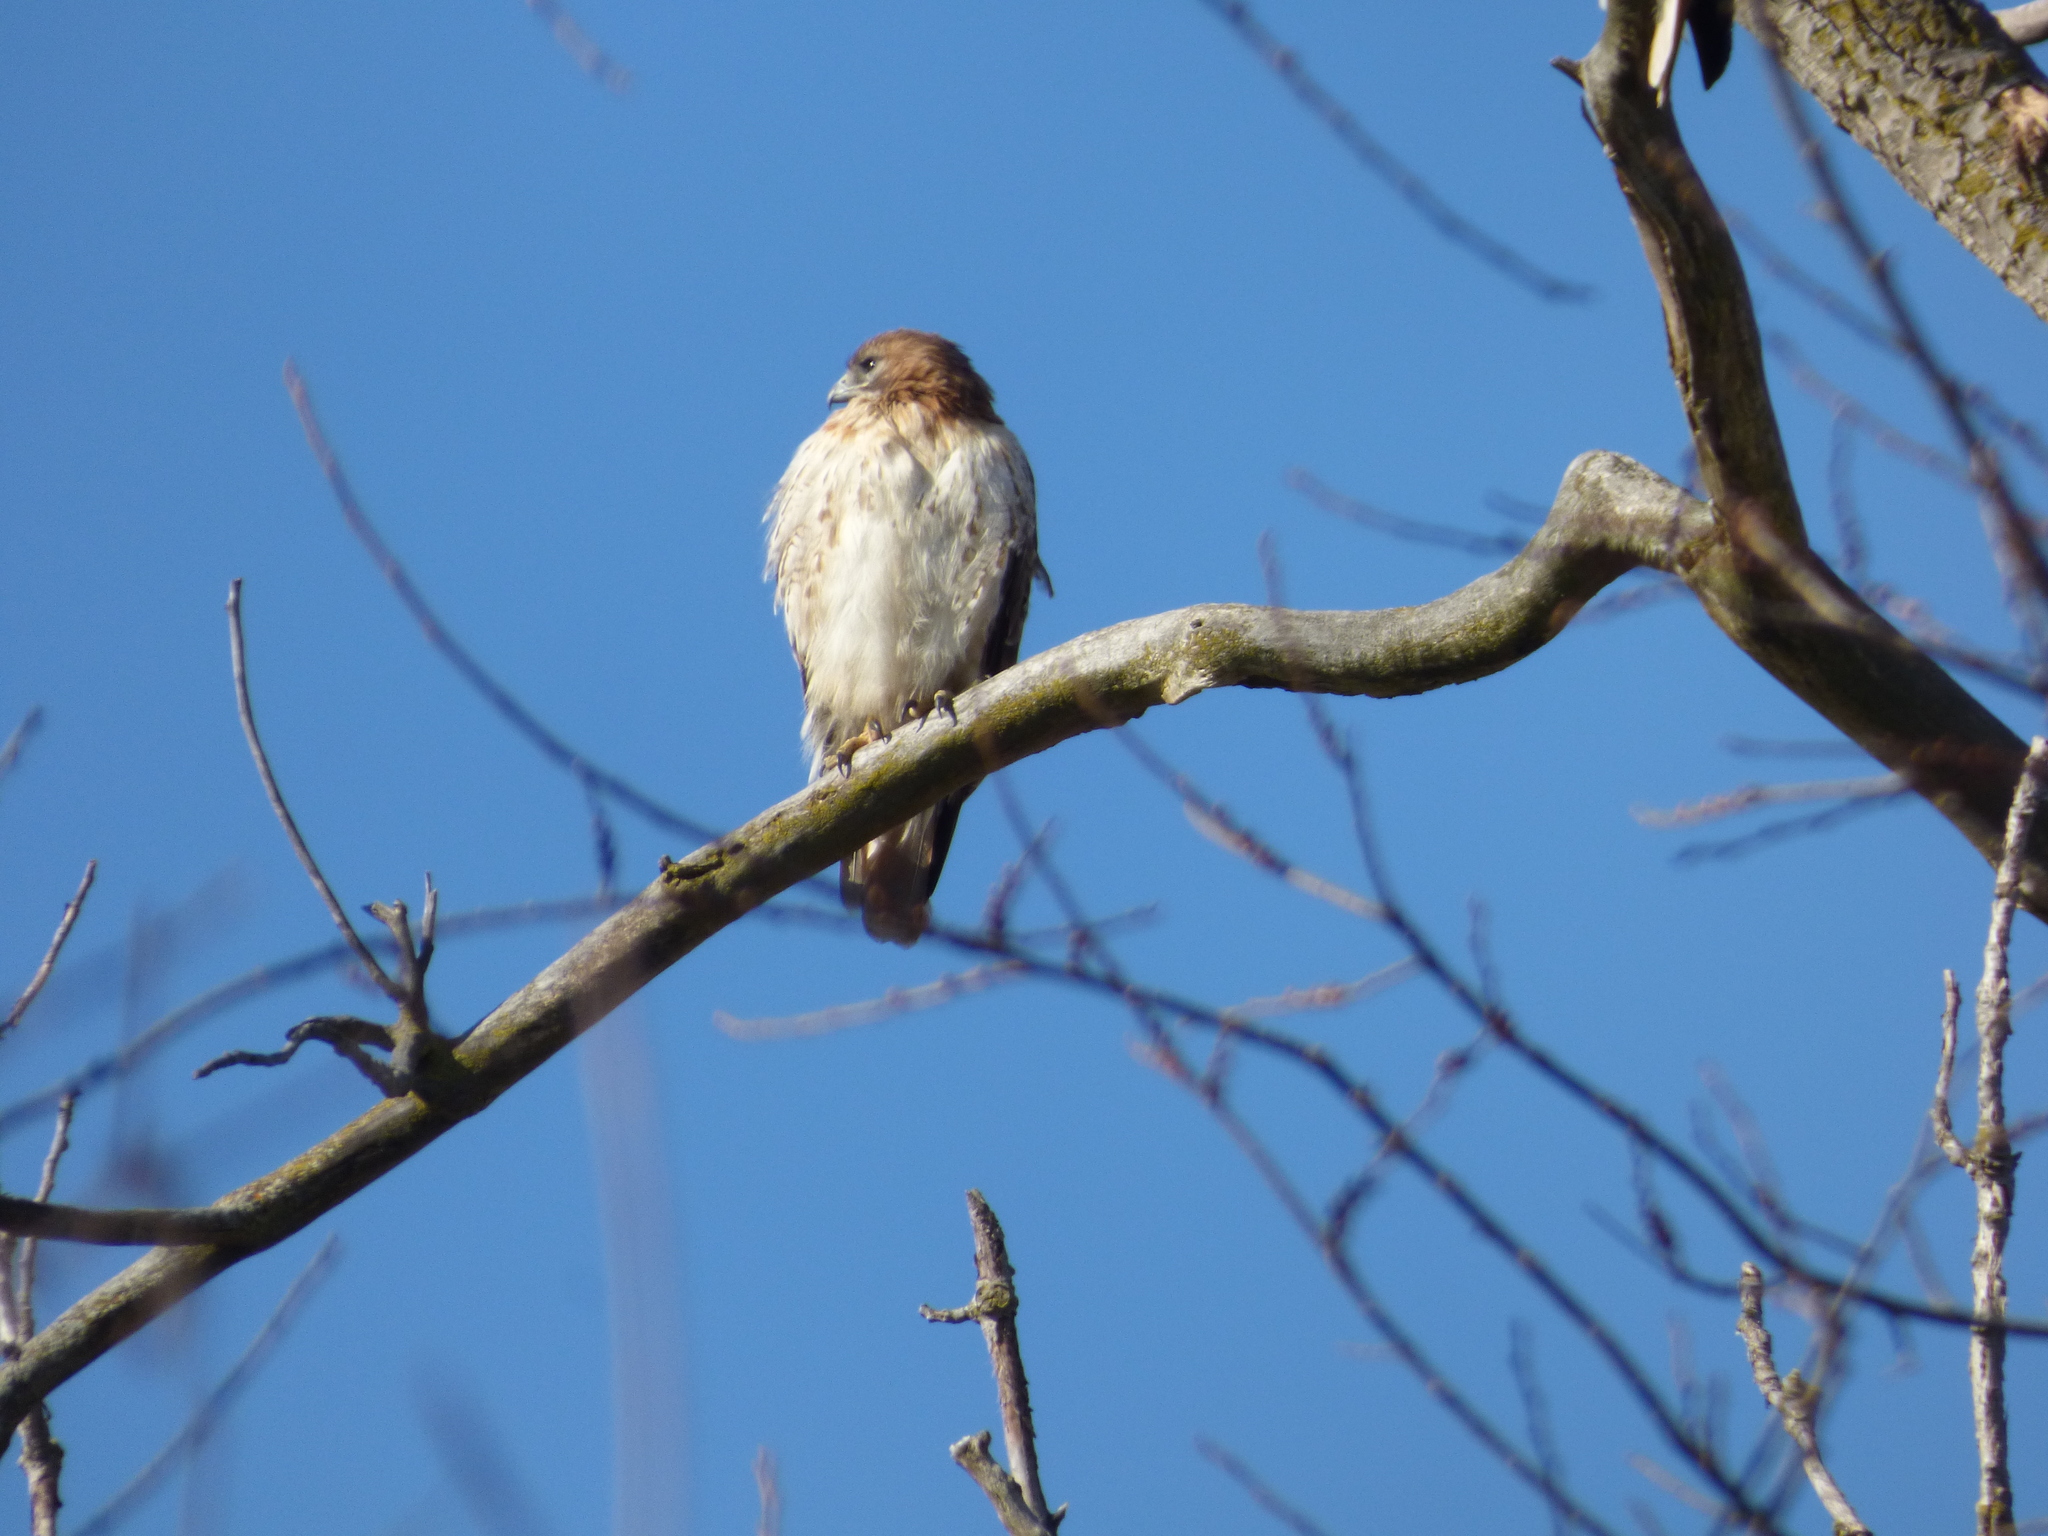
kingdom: Animalia
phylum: Chordata
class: Aves
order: Accipitriformes
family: Accipitridae
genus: Buteo
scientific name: Buteo jamaicensis
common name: Red-tailed hawk
